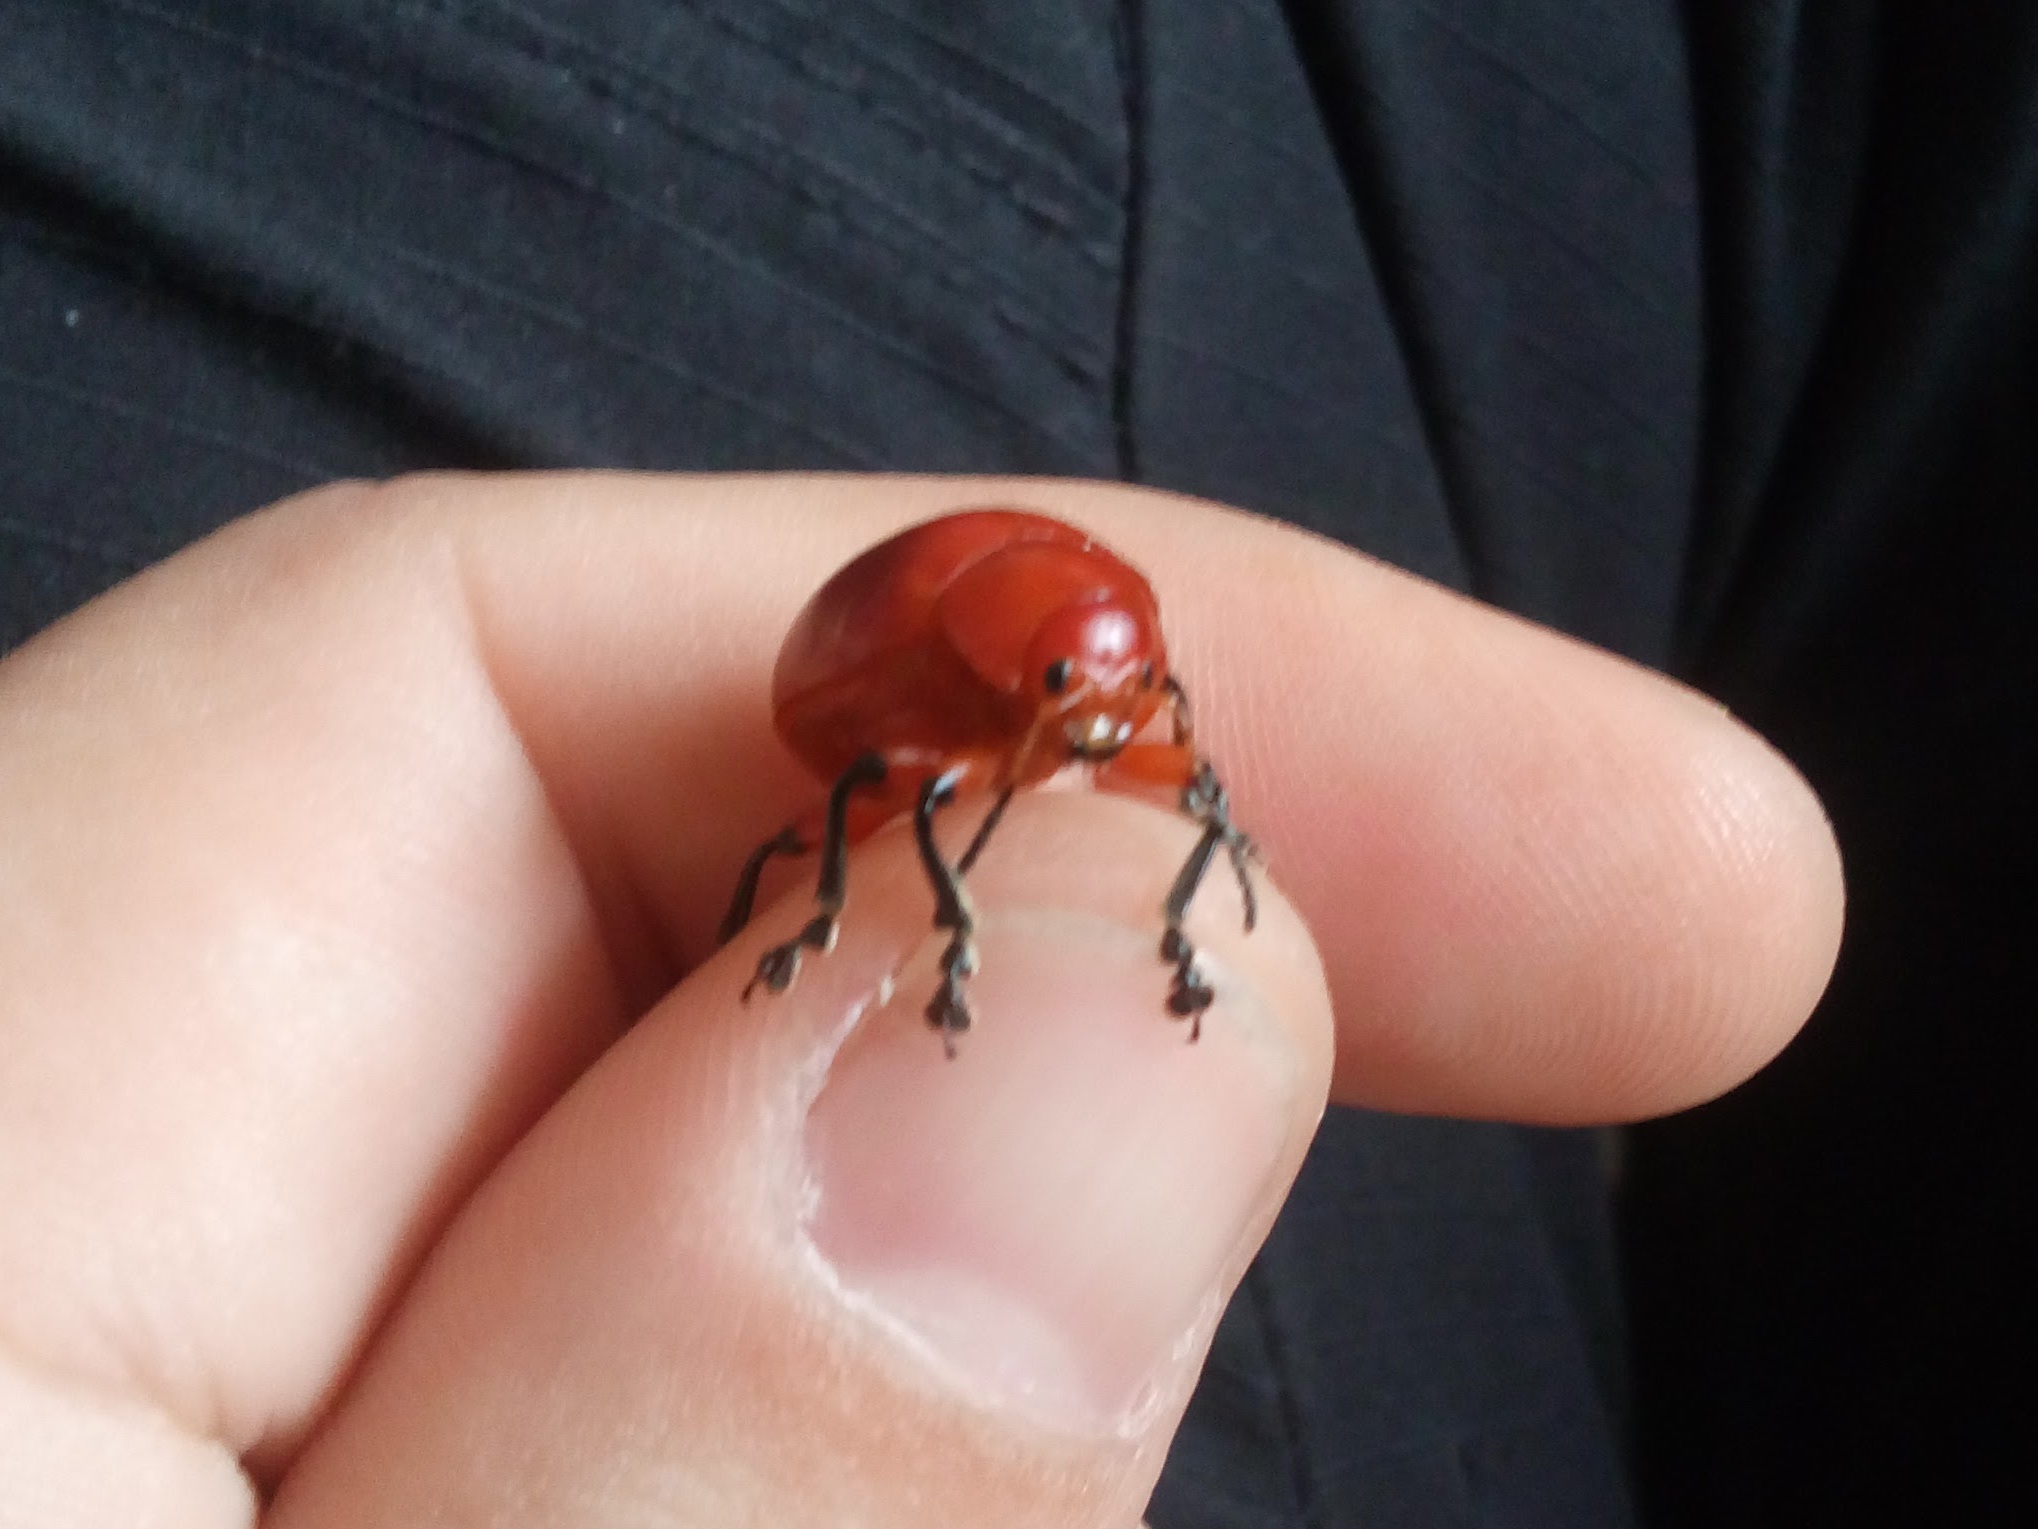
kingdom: Animalia
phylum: Arthropoda
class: Insecta
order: Coleoptera
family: Chrysomelidae
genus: Crimissa
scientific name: Crimissa cruralis
